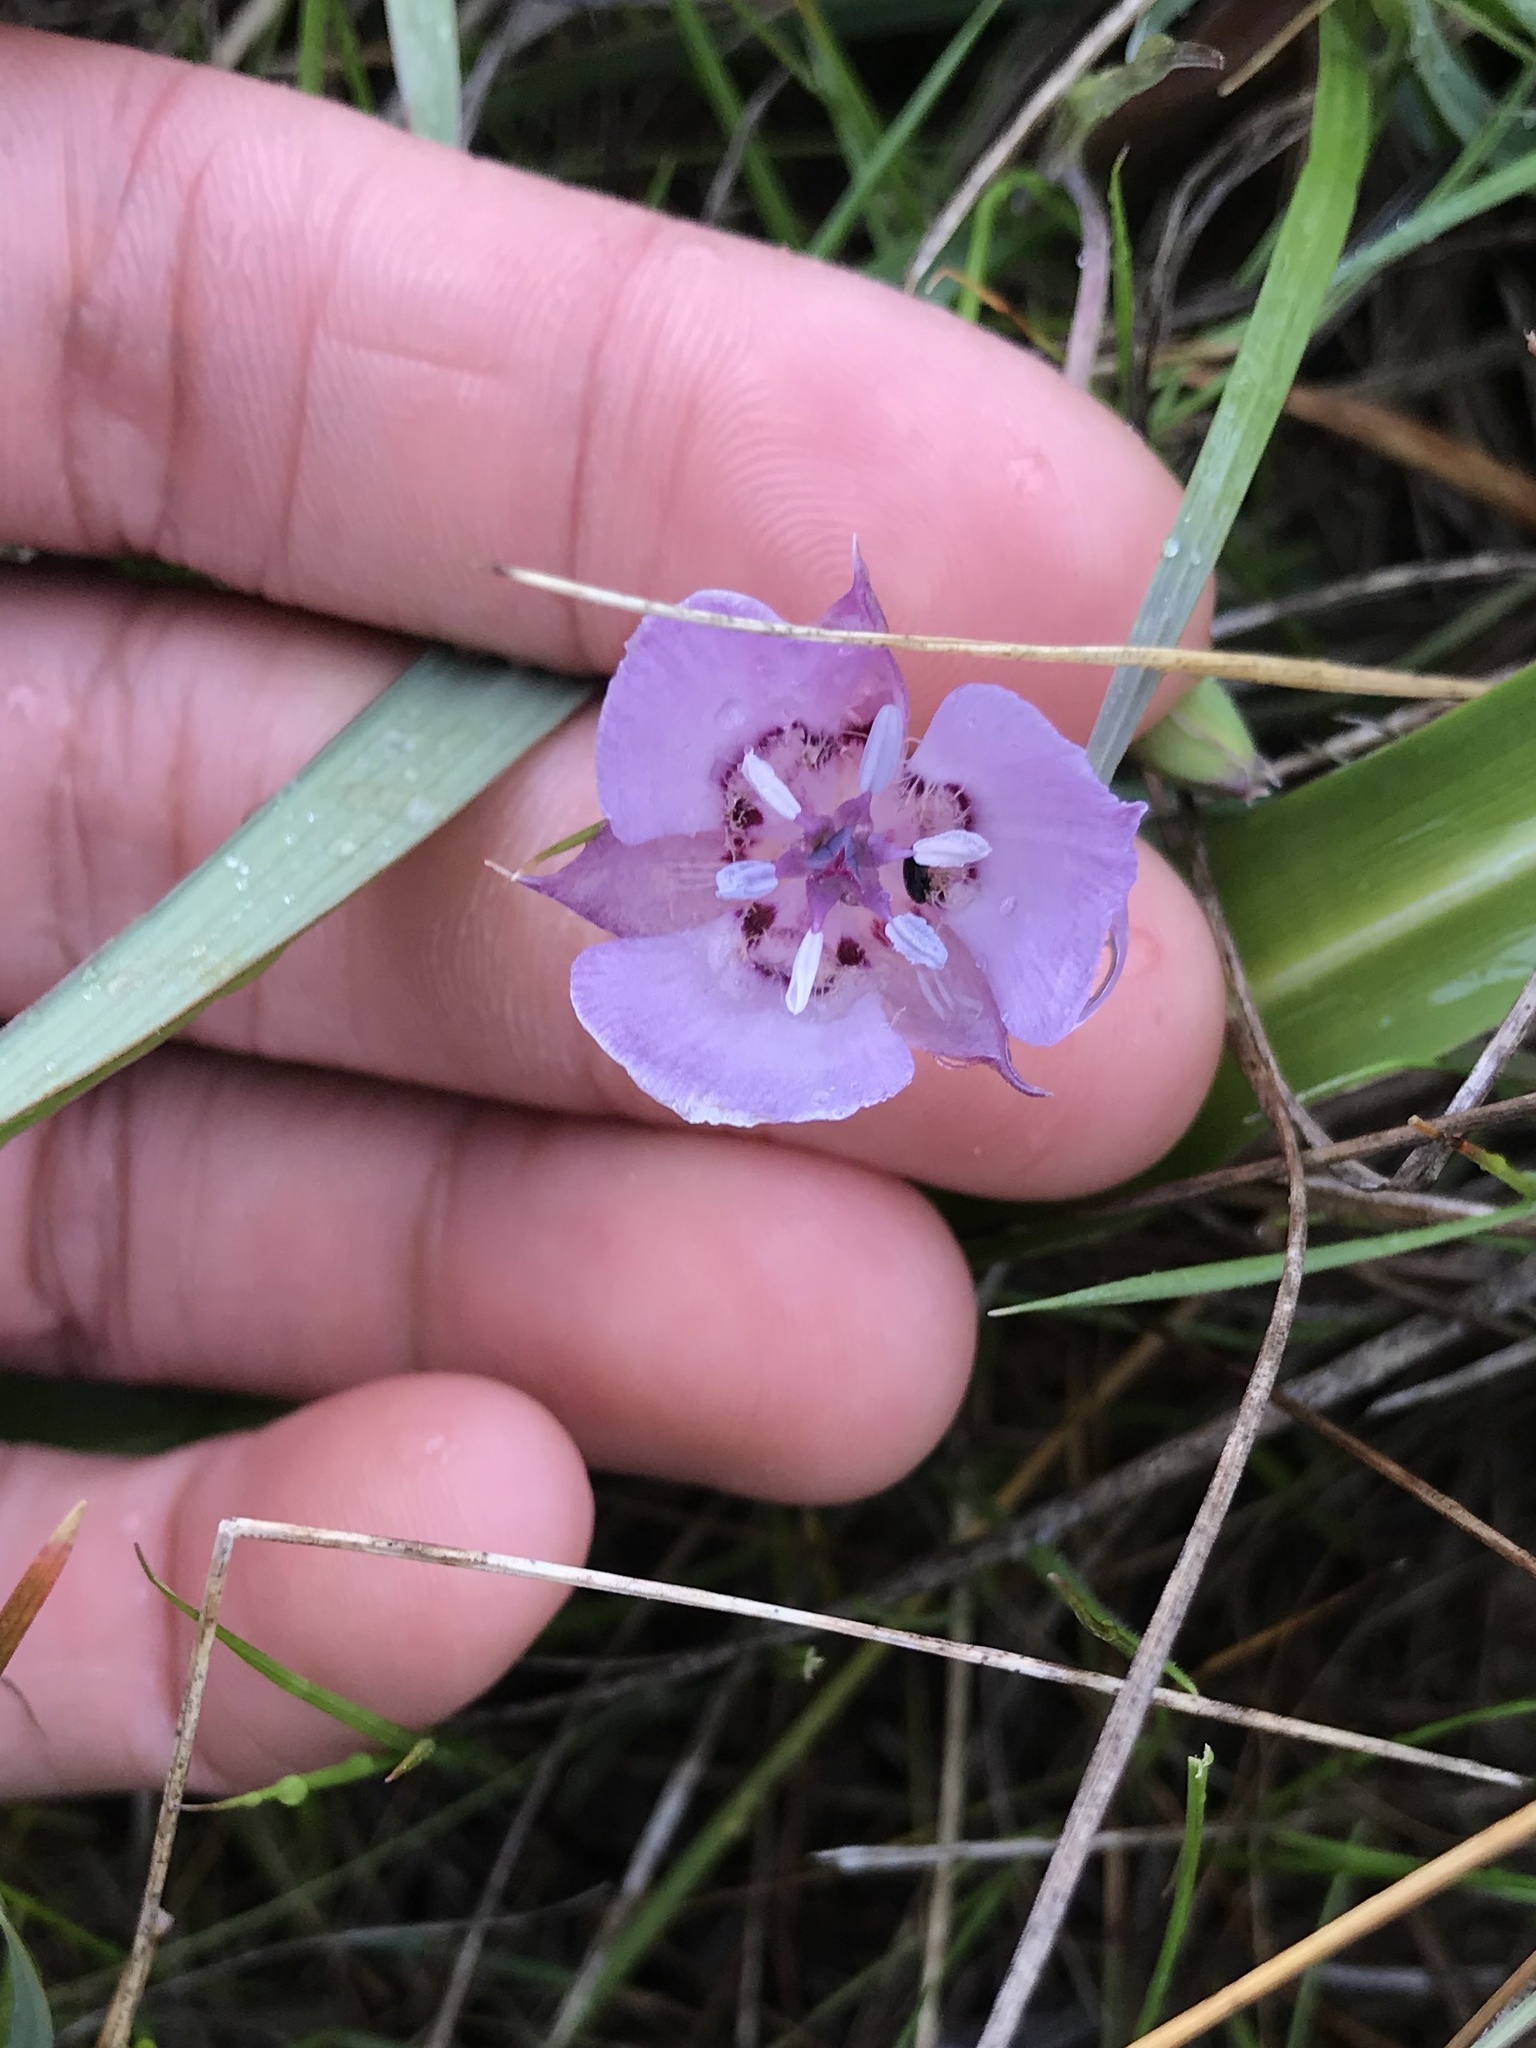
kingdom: Plantae
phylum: Tracheophyta
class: Liliopsida
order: Liliales
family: Liliaceae
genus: Calochortus
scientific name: Calochortus umbellatus
